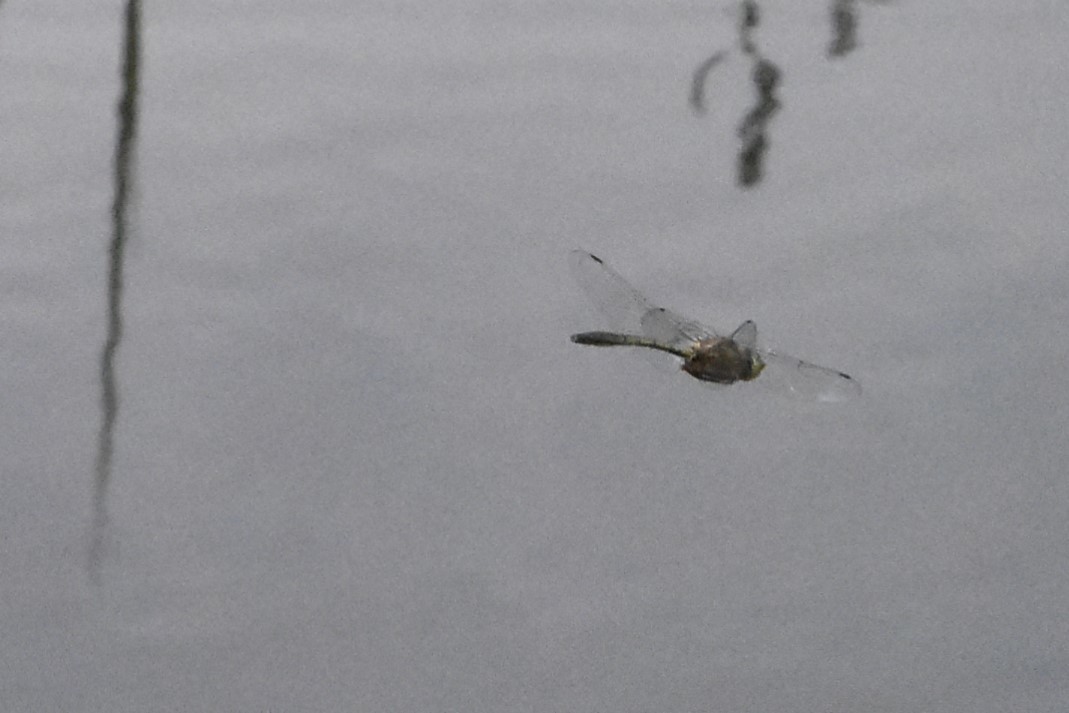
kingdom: Animalia
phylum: Arthropoda
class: Insecta
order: Odonata
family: Corduliidae
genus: Cordulia
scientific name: Cordulia aenea
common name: Downy emerald
